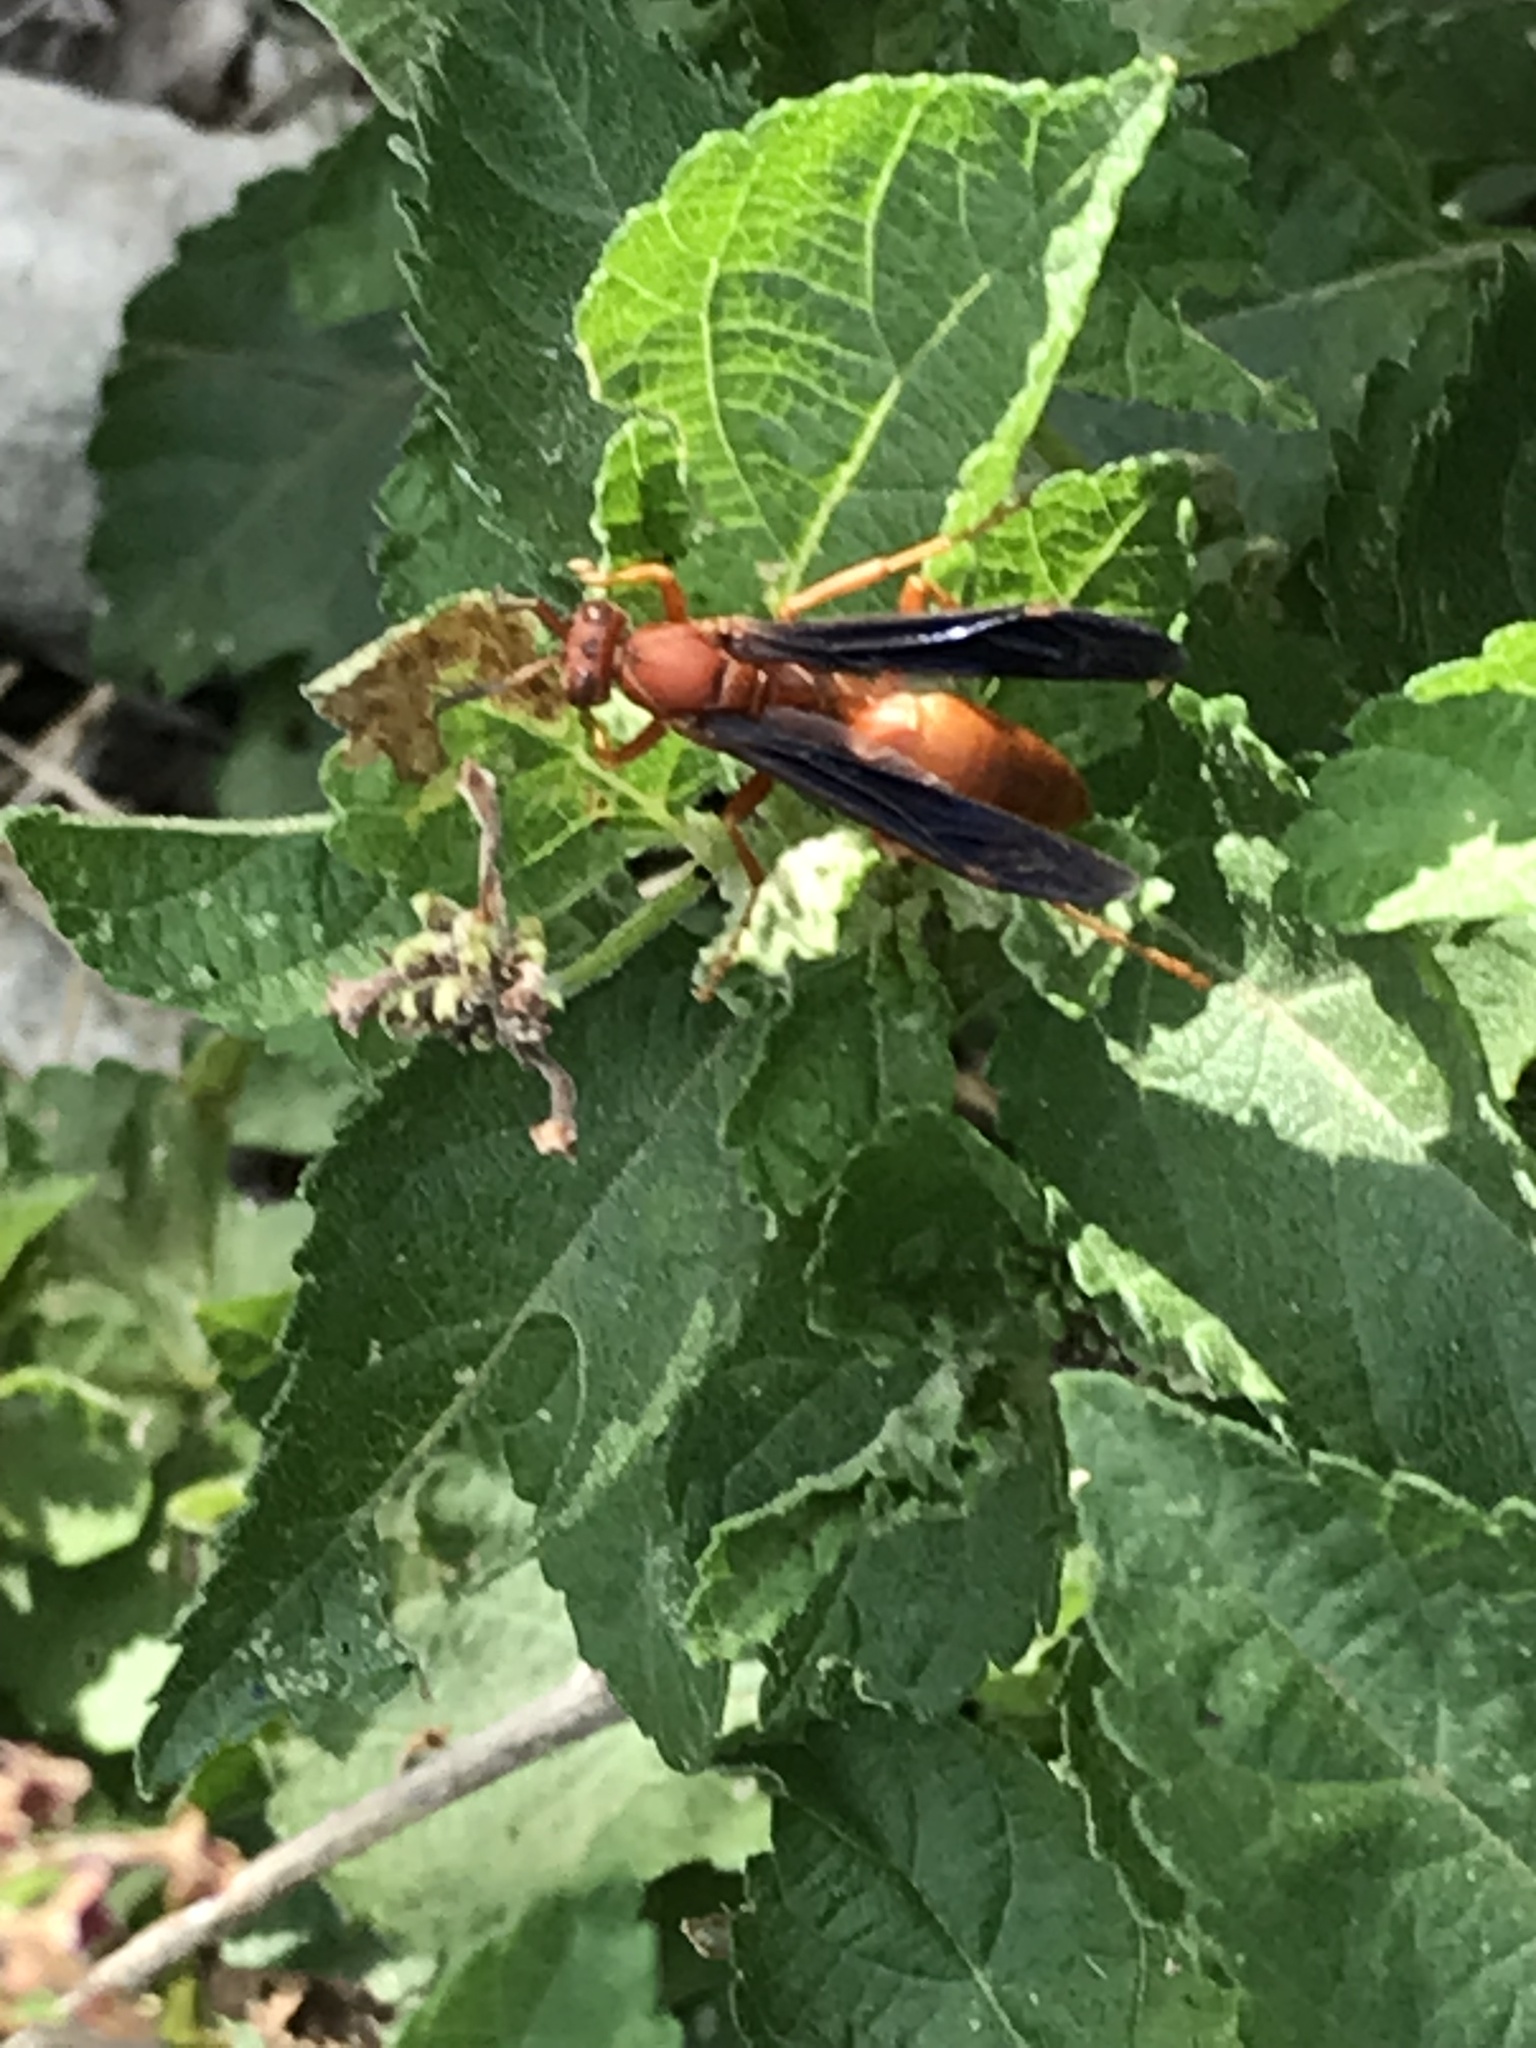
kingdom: Animalia
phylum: Arthropoda
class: Insecta
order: Hymenoptera
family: Eumenidae
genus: Polistes
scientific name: Polistes carolina
